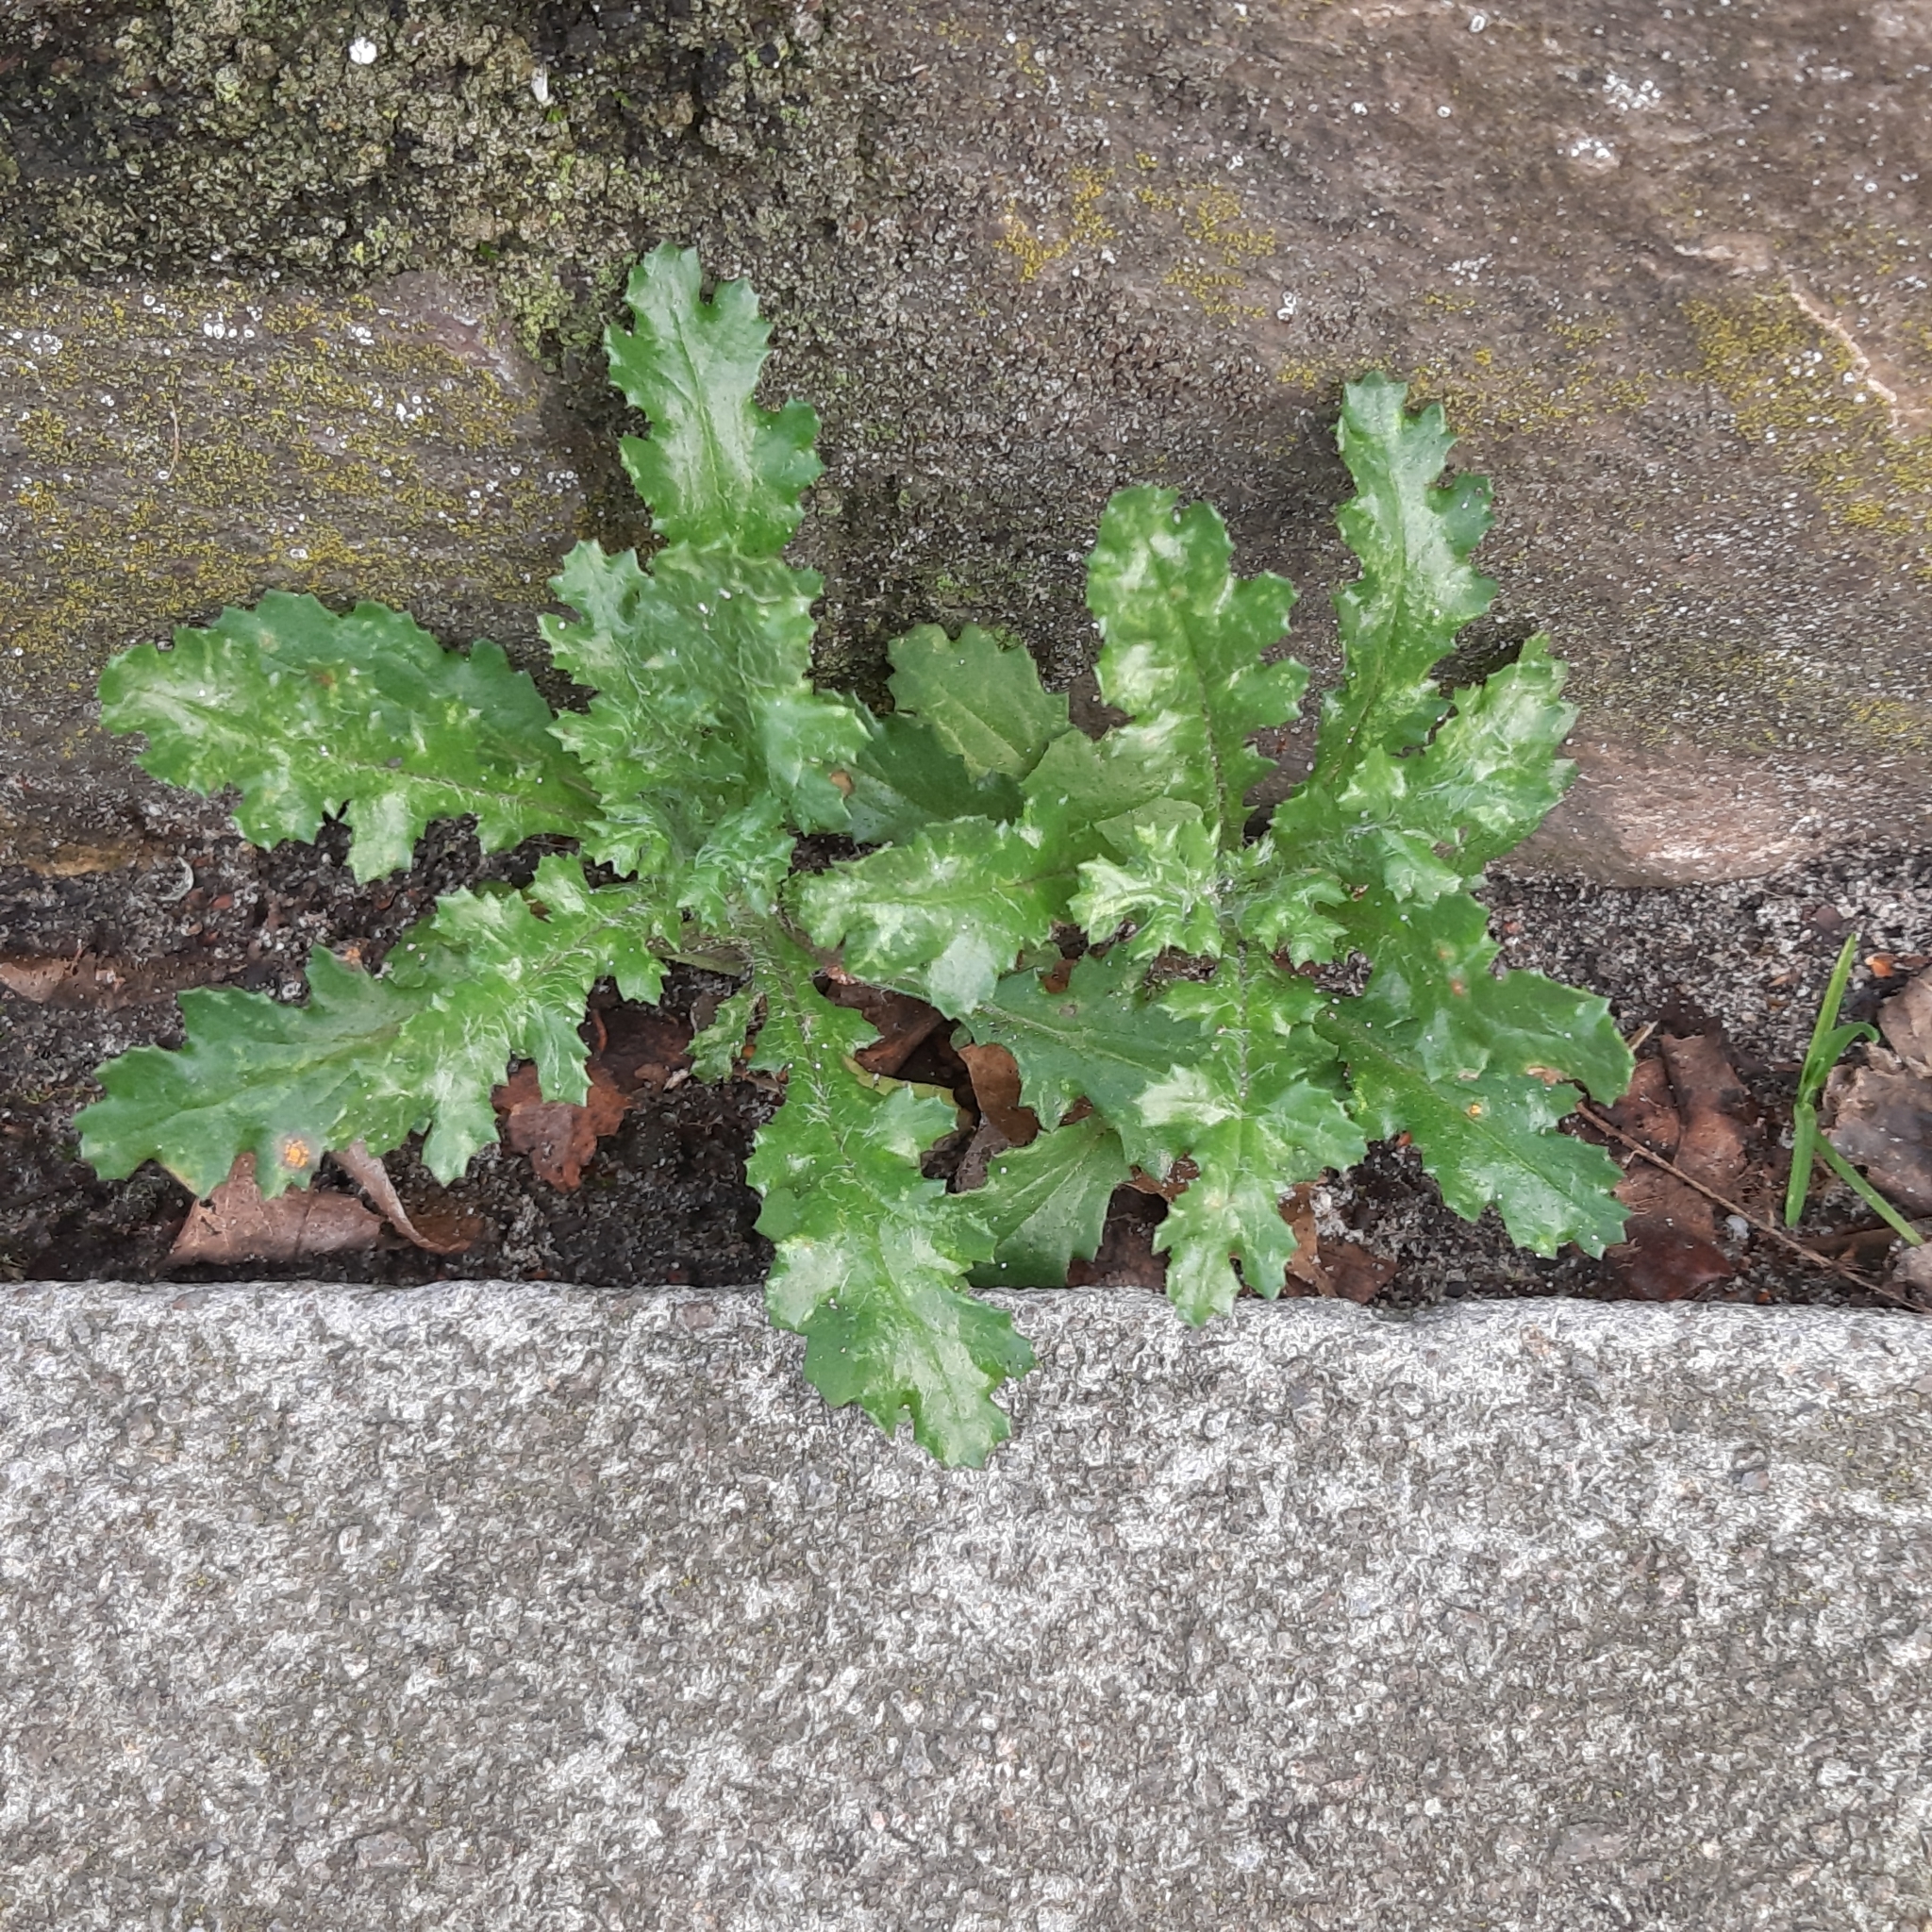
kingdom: Plantae
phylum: Tracheophyta
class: Magnoliopsida
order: Asterales
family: Asteraceae
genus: Senecio
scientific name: Senecio vulgaris
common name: Old-man-in-the-spring
